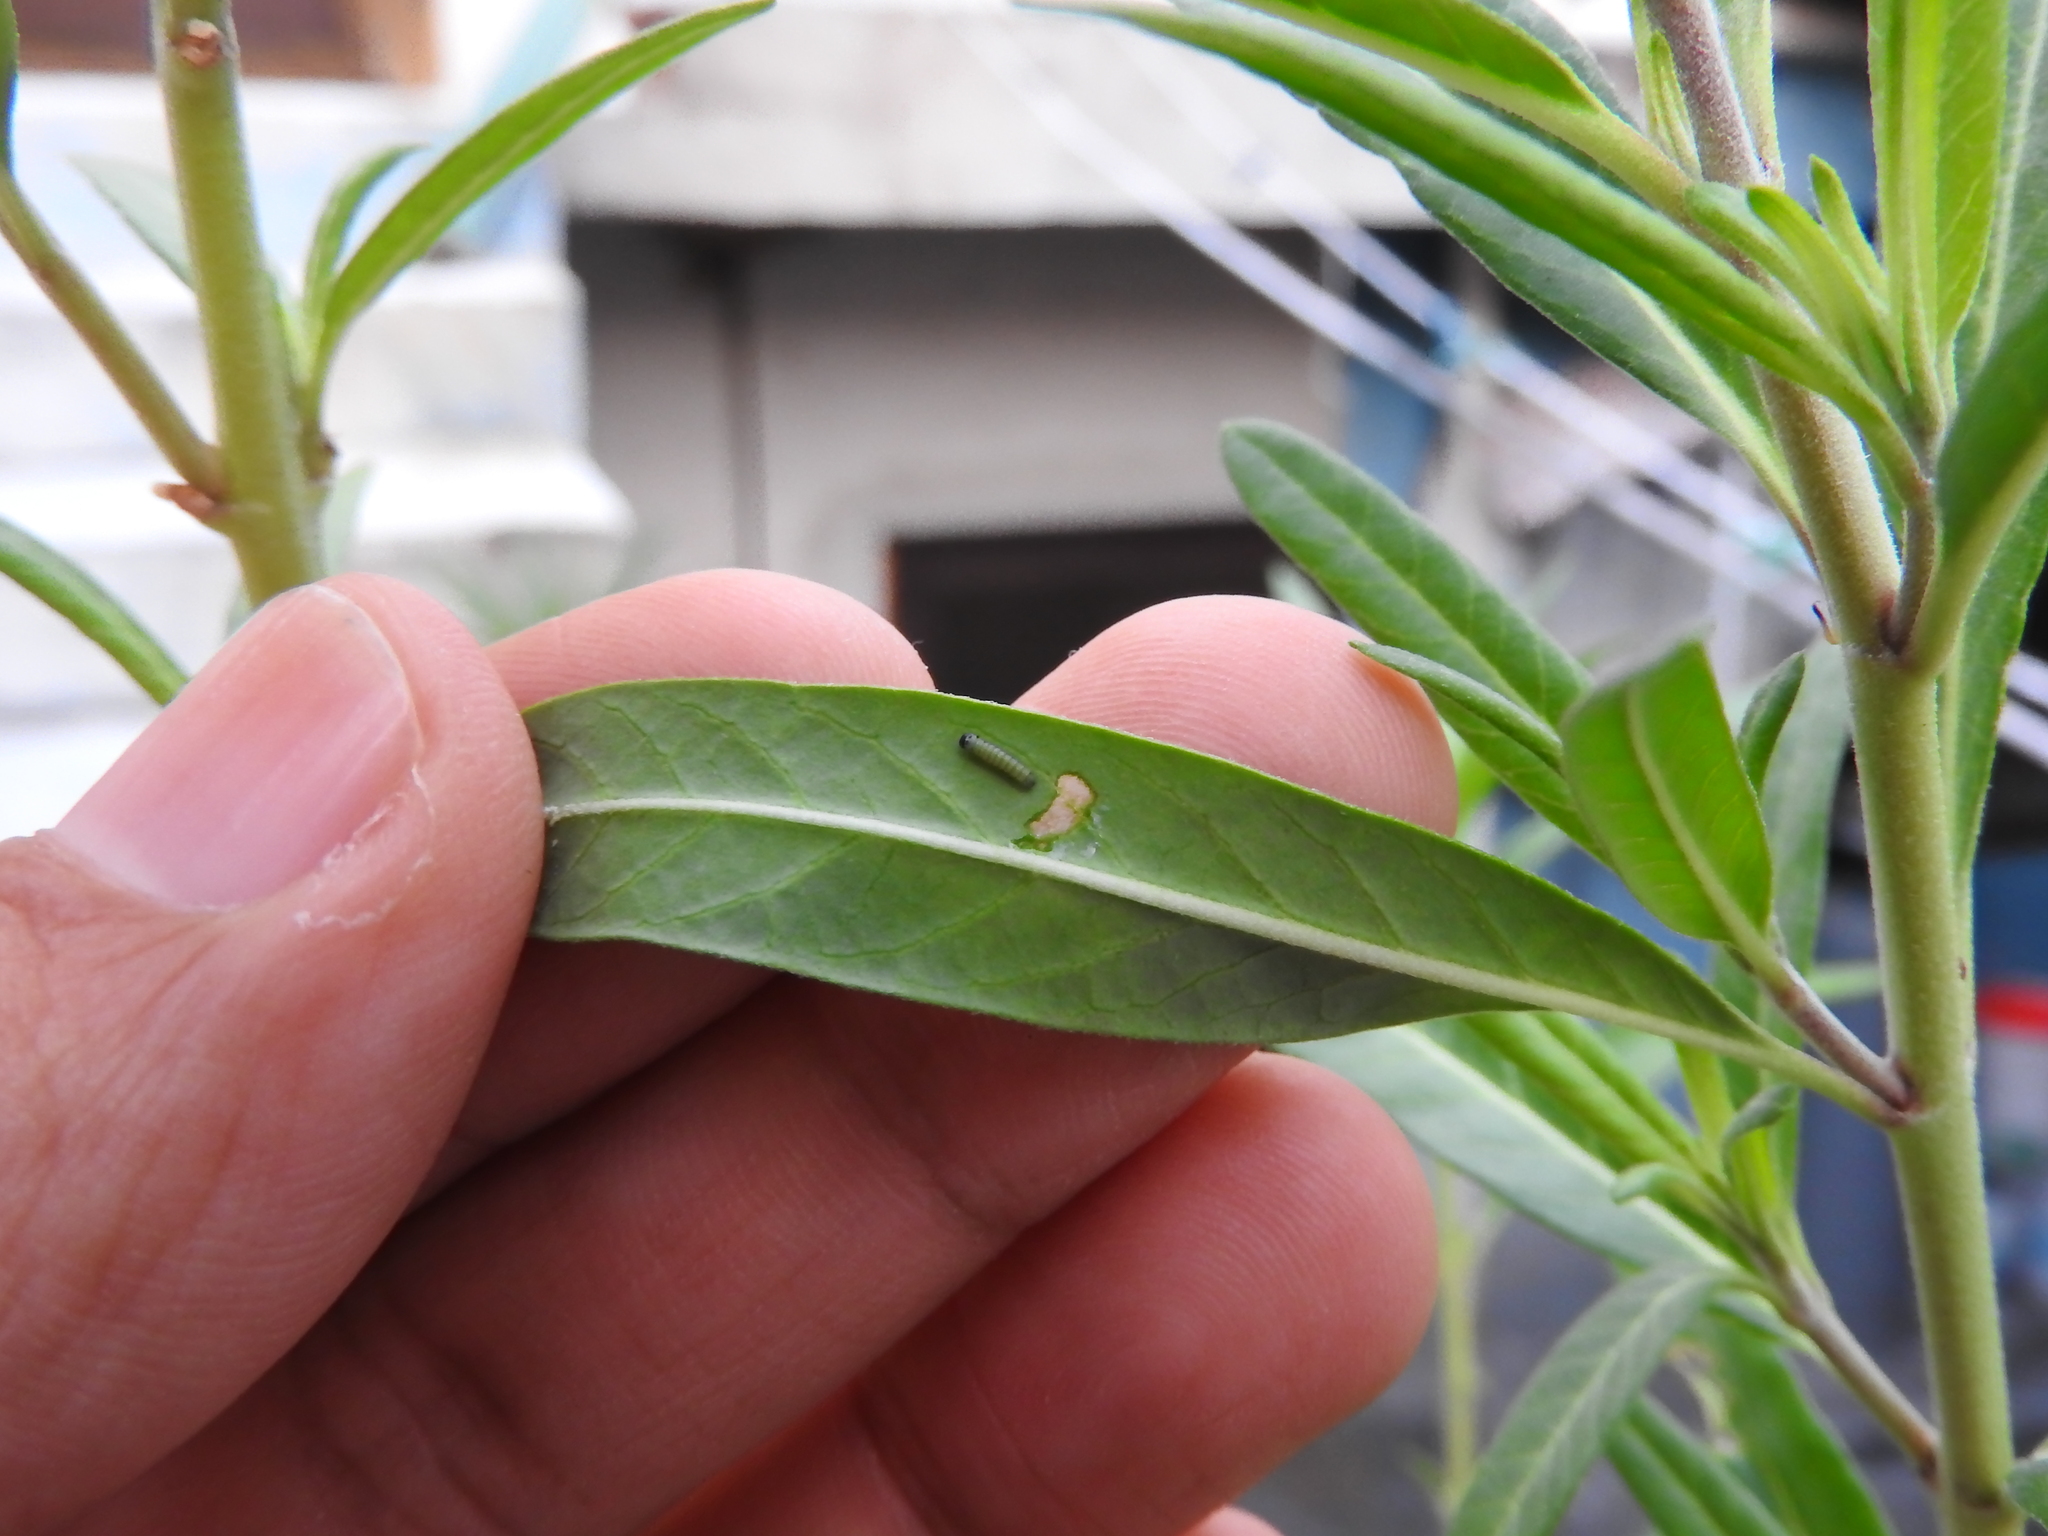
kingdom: Animalia
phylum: Arthropoda
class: Insecta
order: Lepidoptera
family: Nymphalidae
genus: Danaus
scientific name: Danaus plexippus
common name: Monarch
